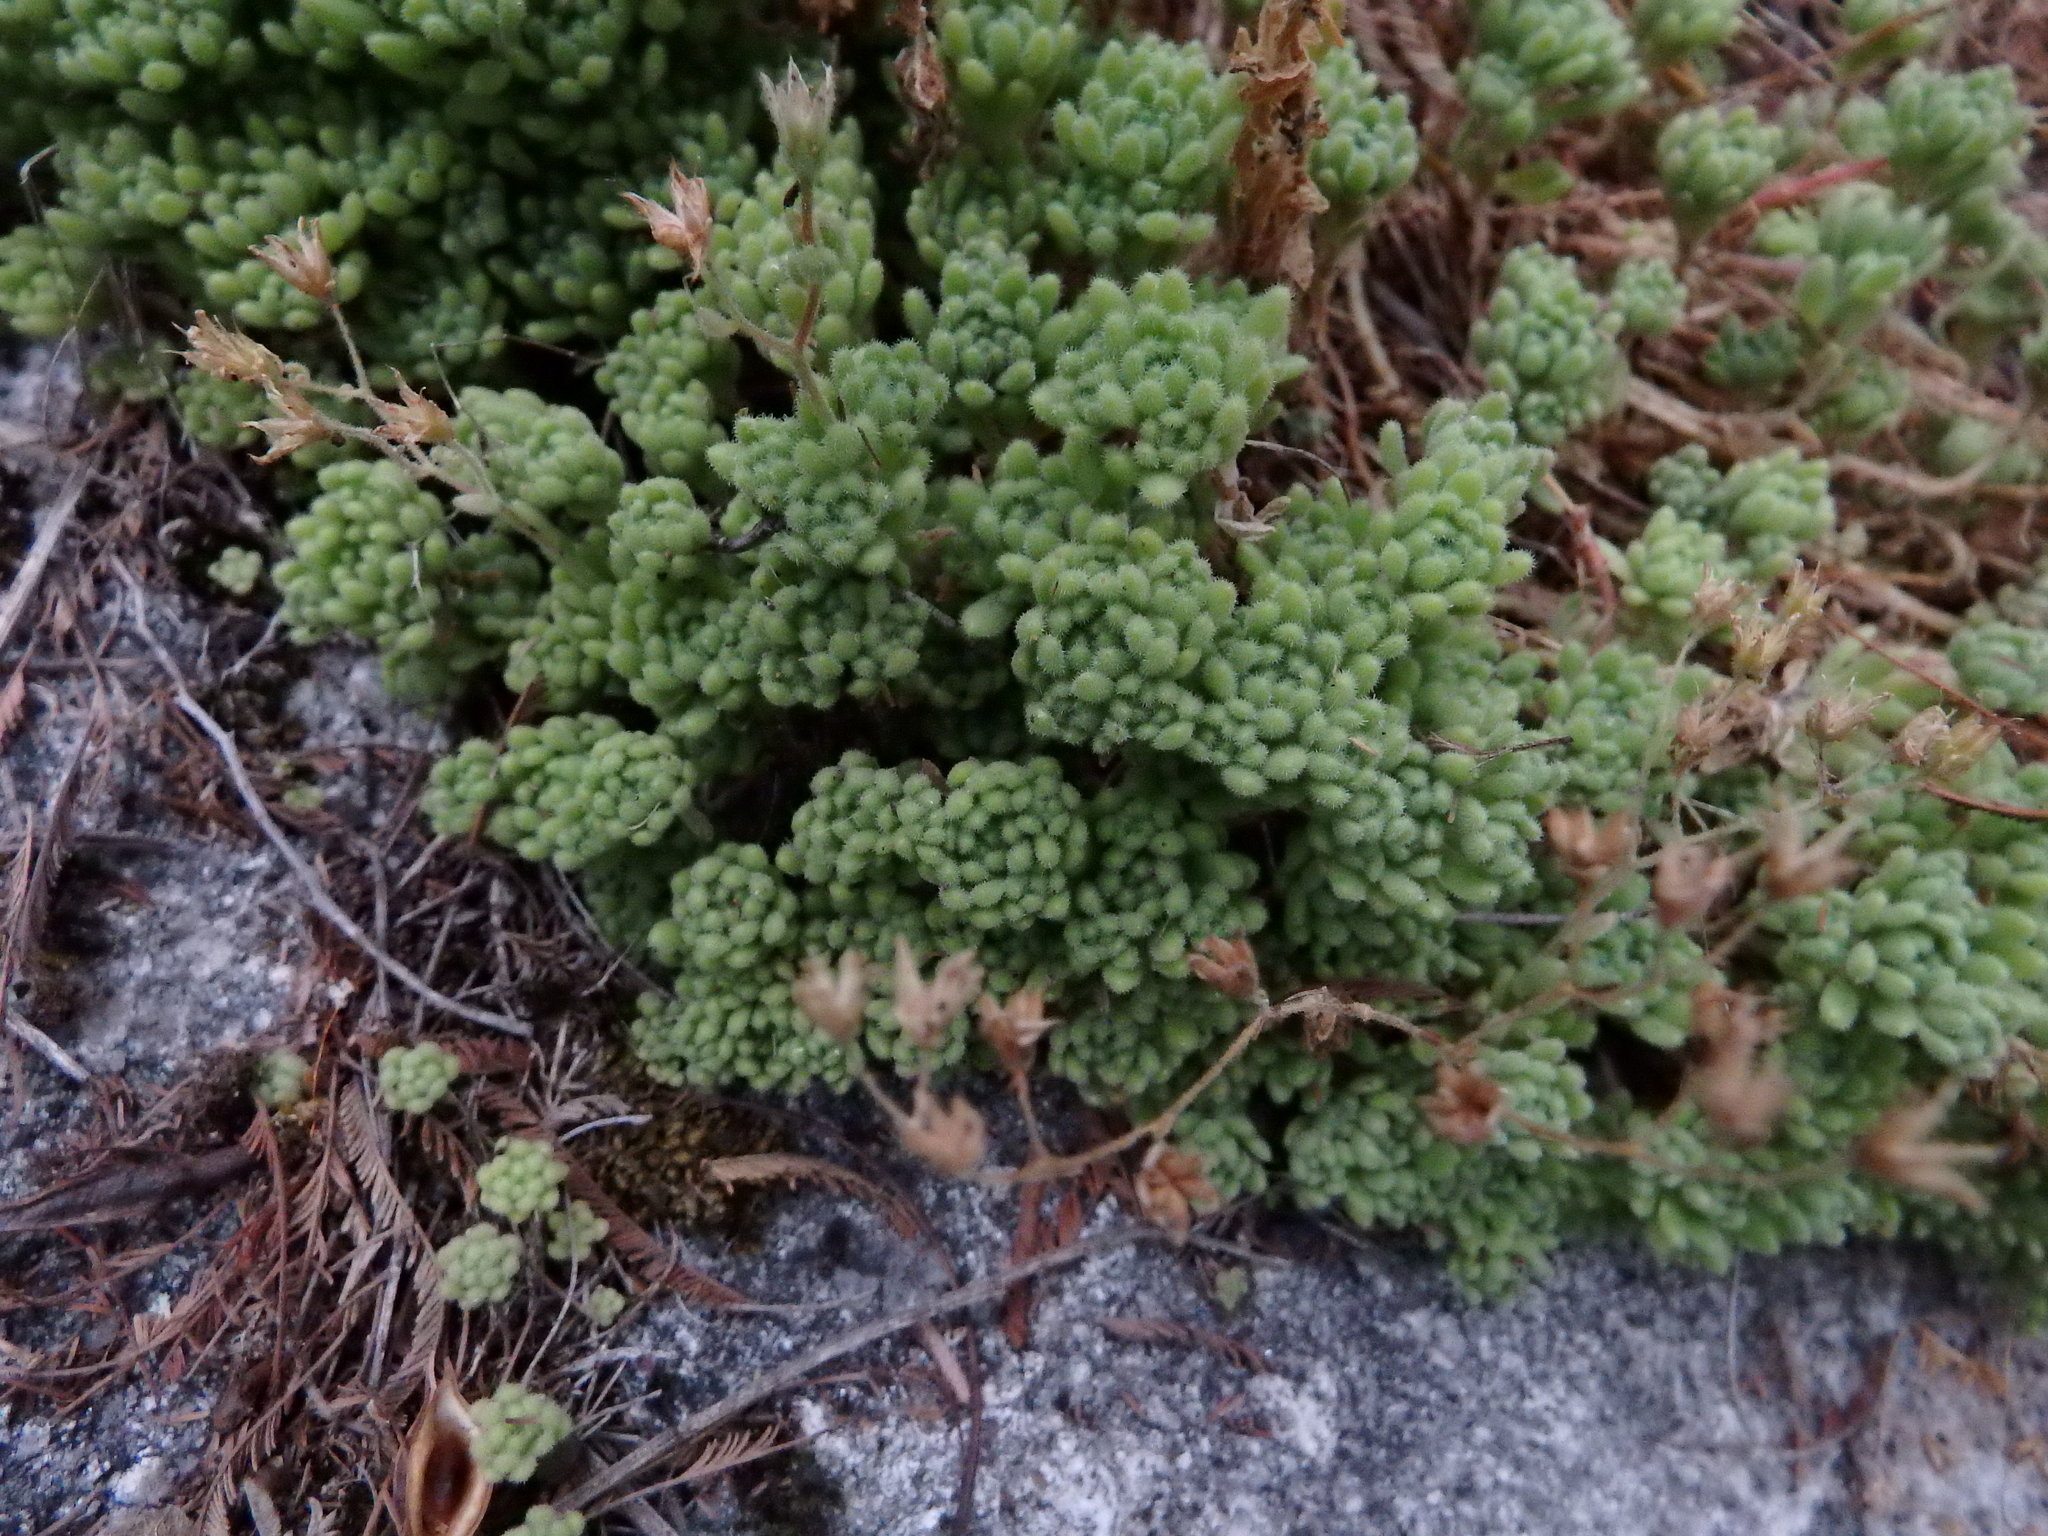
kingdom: Plantae
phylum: Tracheophyta
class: Magnoliopsida
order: Saxifragales
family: Crassulaceae
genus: Sedum
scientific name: Sedum hirsutum
